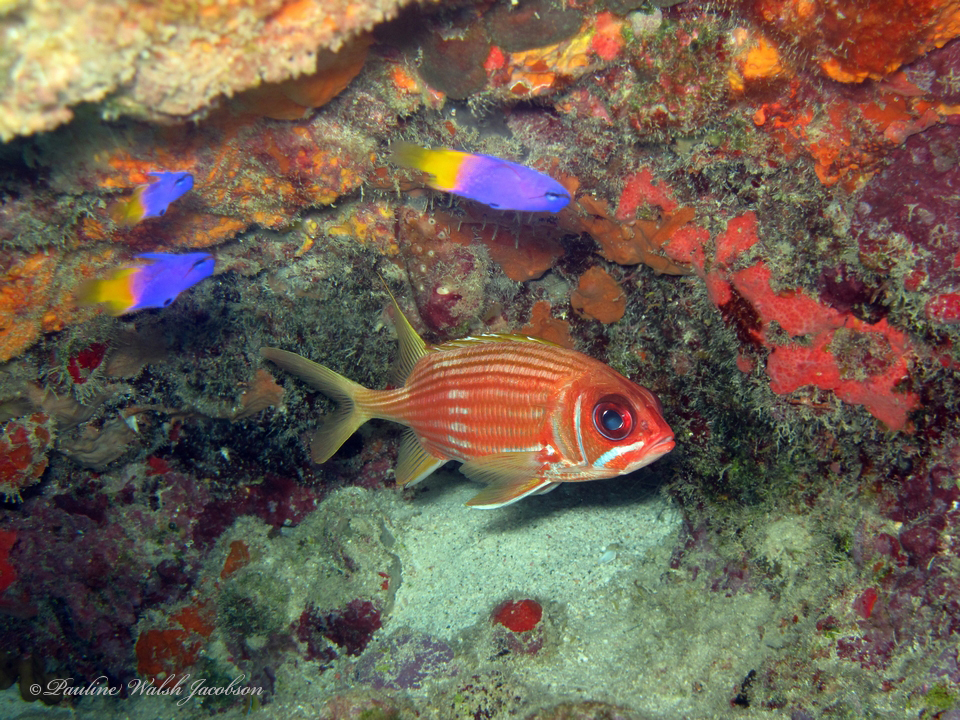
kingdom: Animalia
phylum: Chordata
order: Perciformes
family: Grammatidae
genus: Gramma
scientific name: Gramma loreto
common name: Fairy basslet
